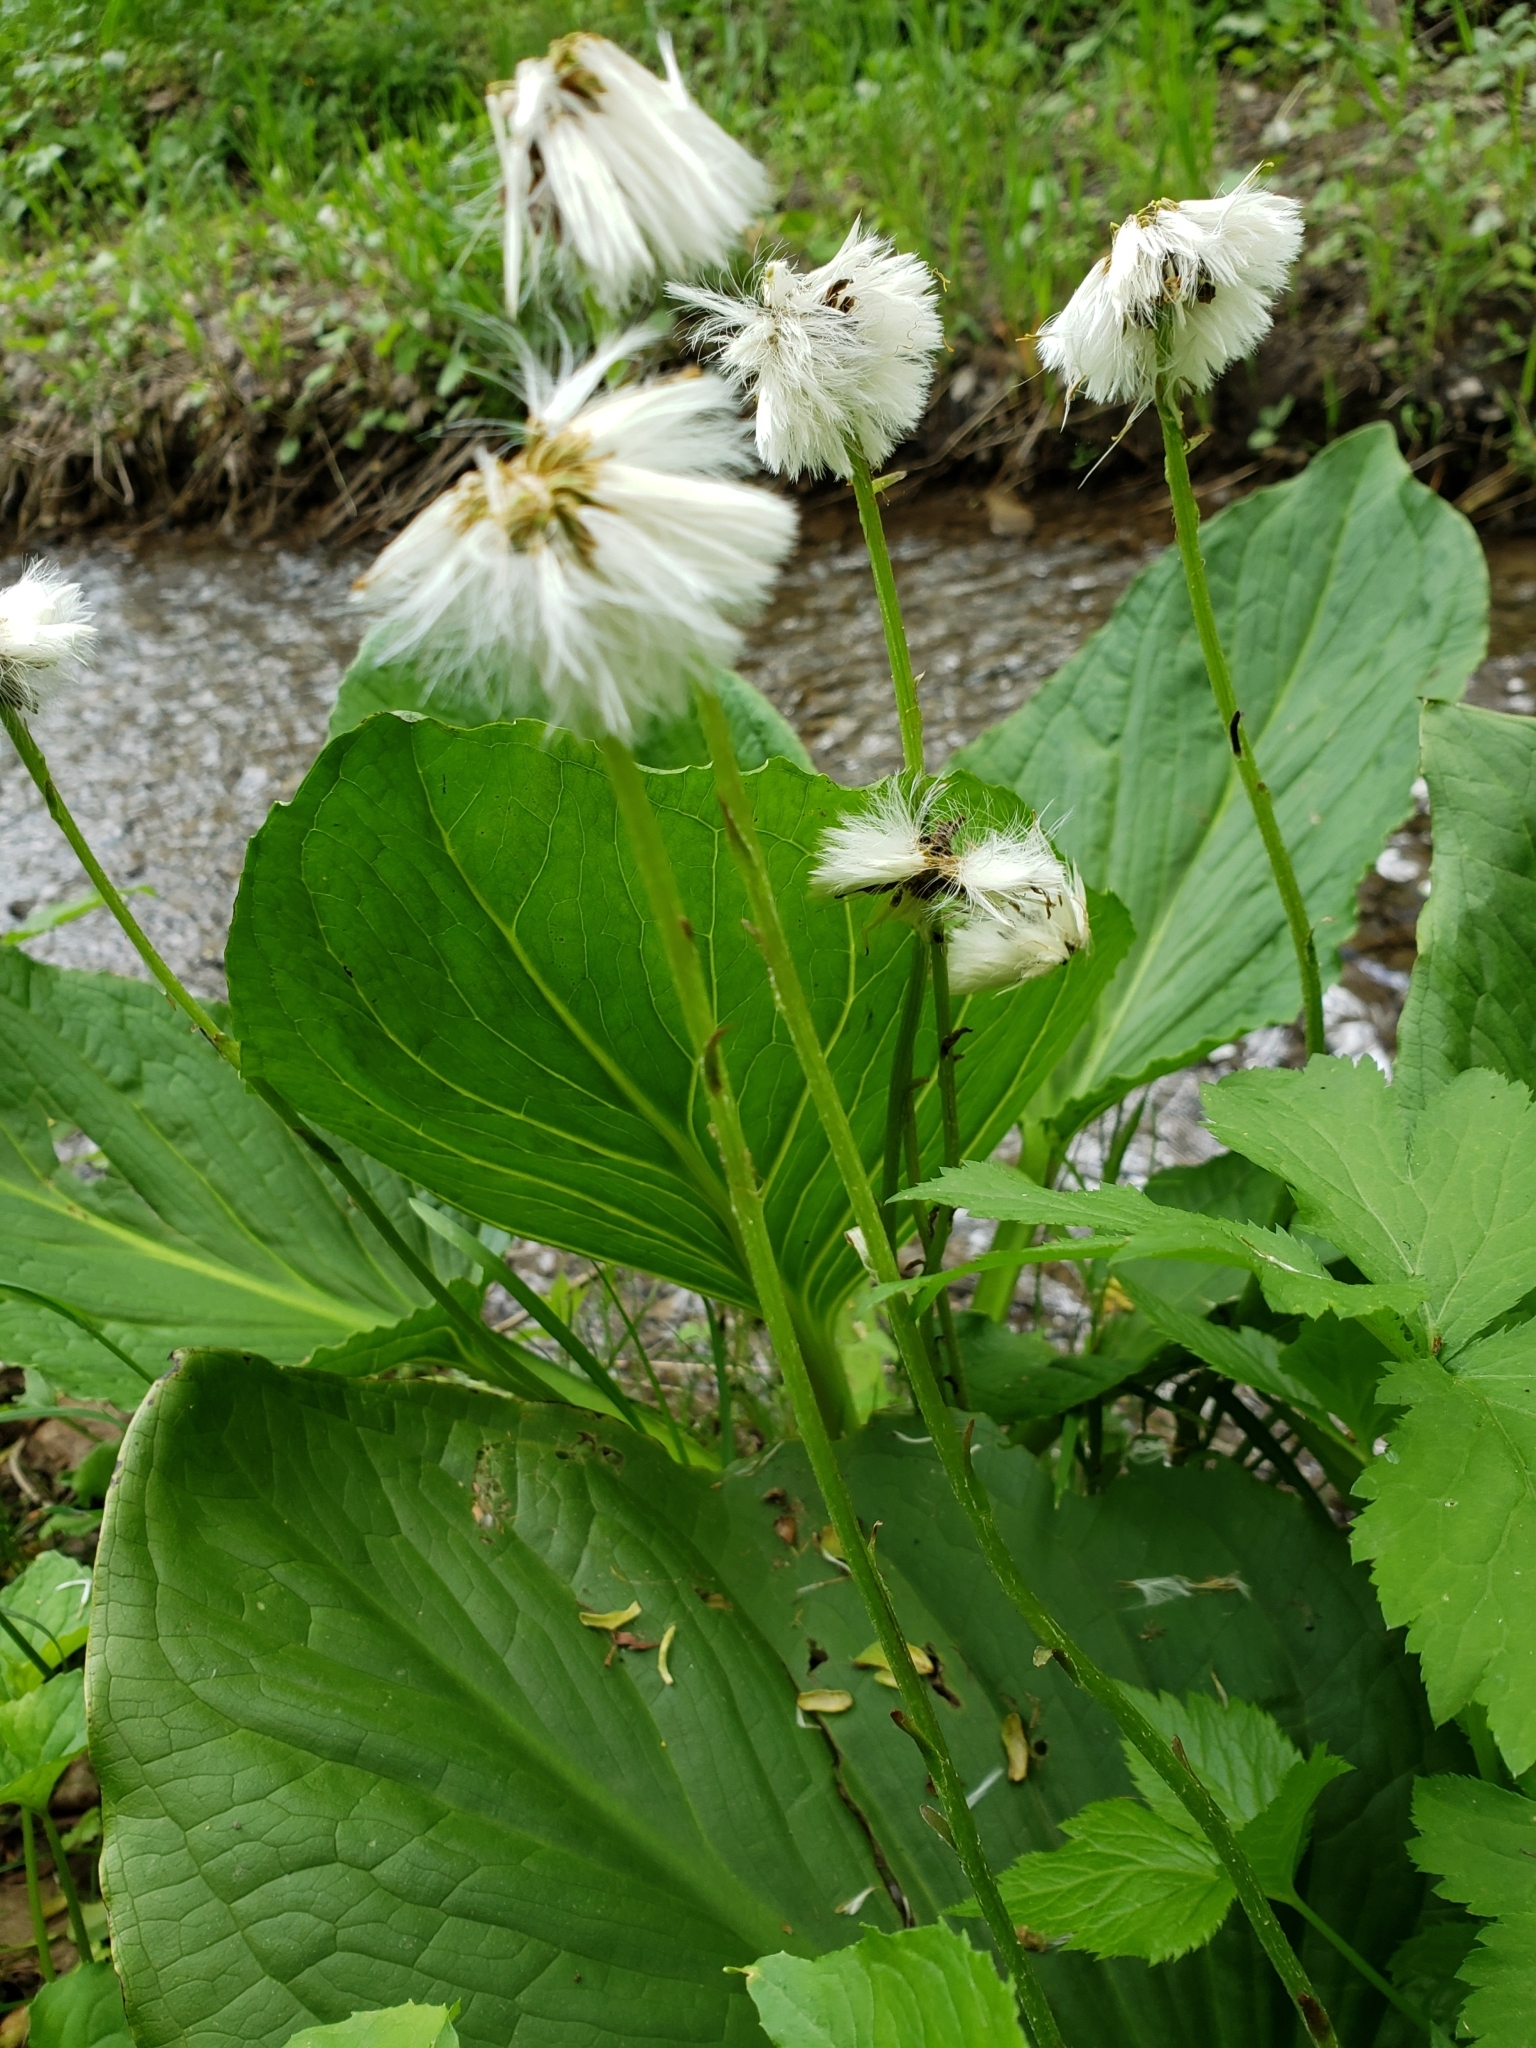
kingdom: Plantae
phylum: Tracheophyta
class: Magnoliopsida
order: Asterales
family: Asteraceae
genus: Tussilago
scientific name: Tussilago farfara
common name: Coltsfoot
